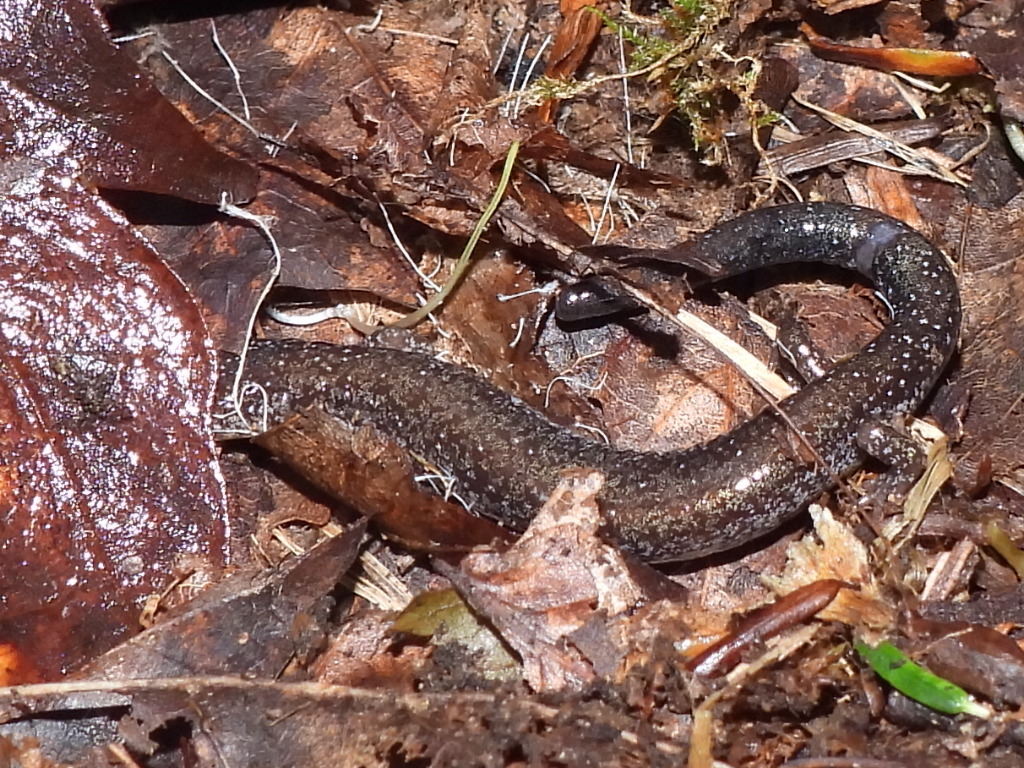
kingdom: Animalia
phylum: Chordata
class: Amphibia
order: Caudata
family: Plethodontidae
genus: Plethodon
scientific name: Plethodon cinereus
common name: Redback salamander
